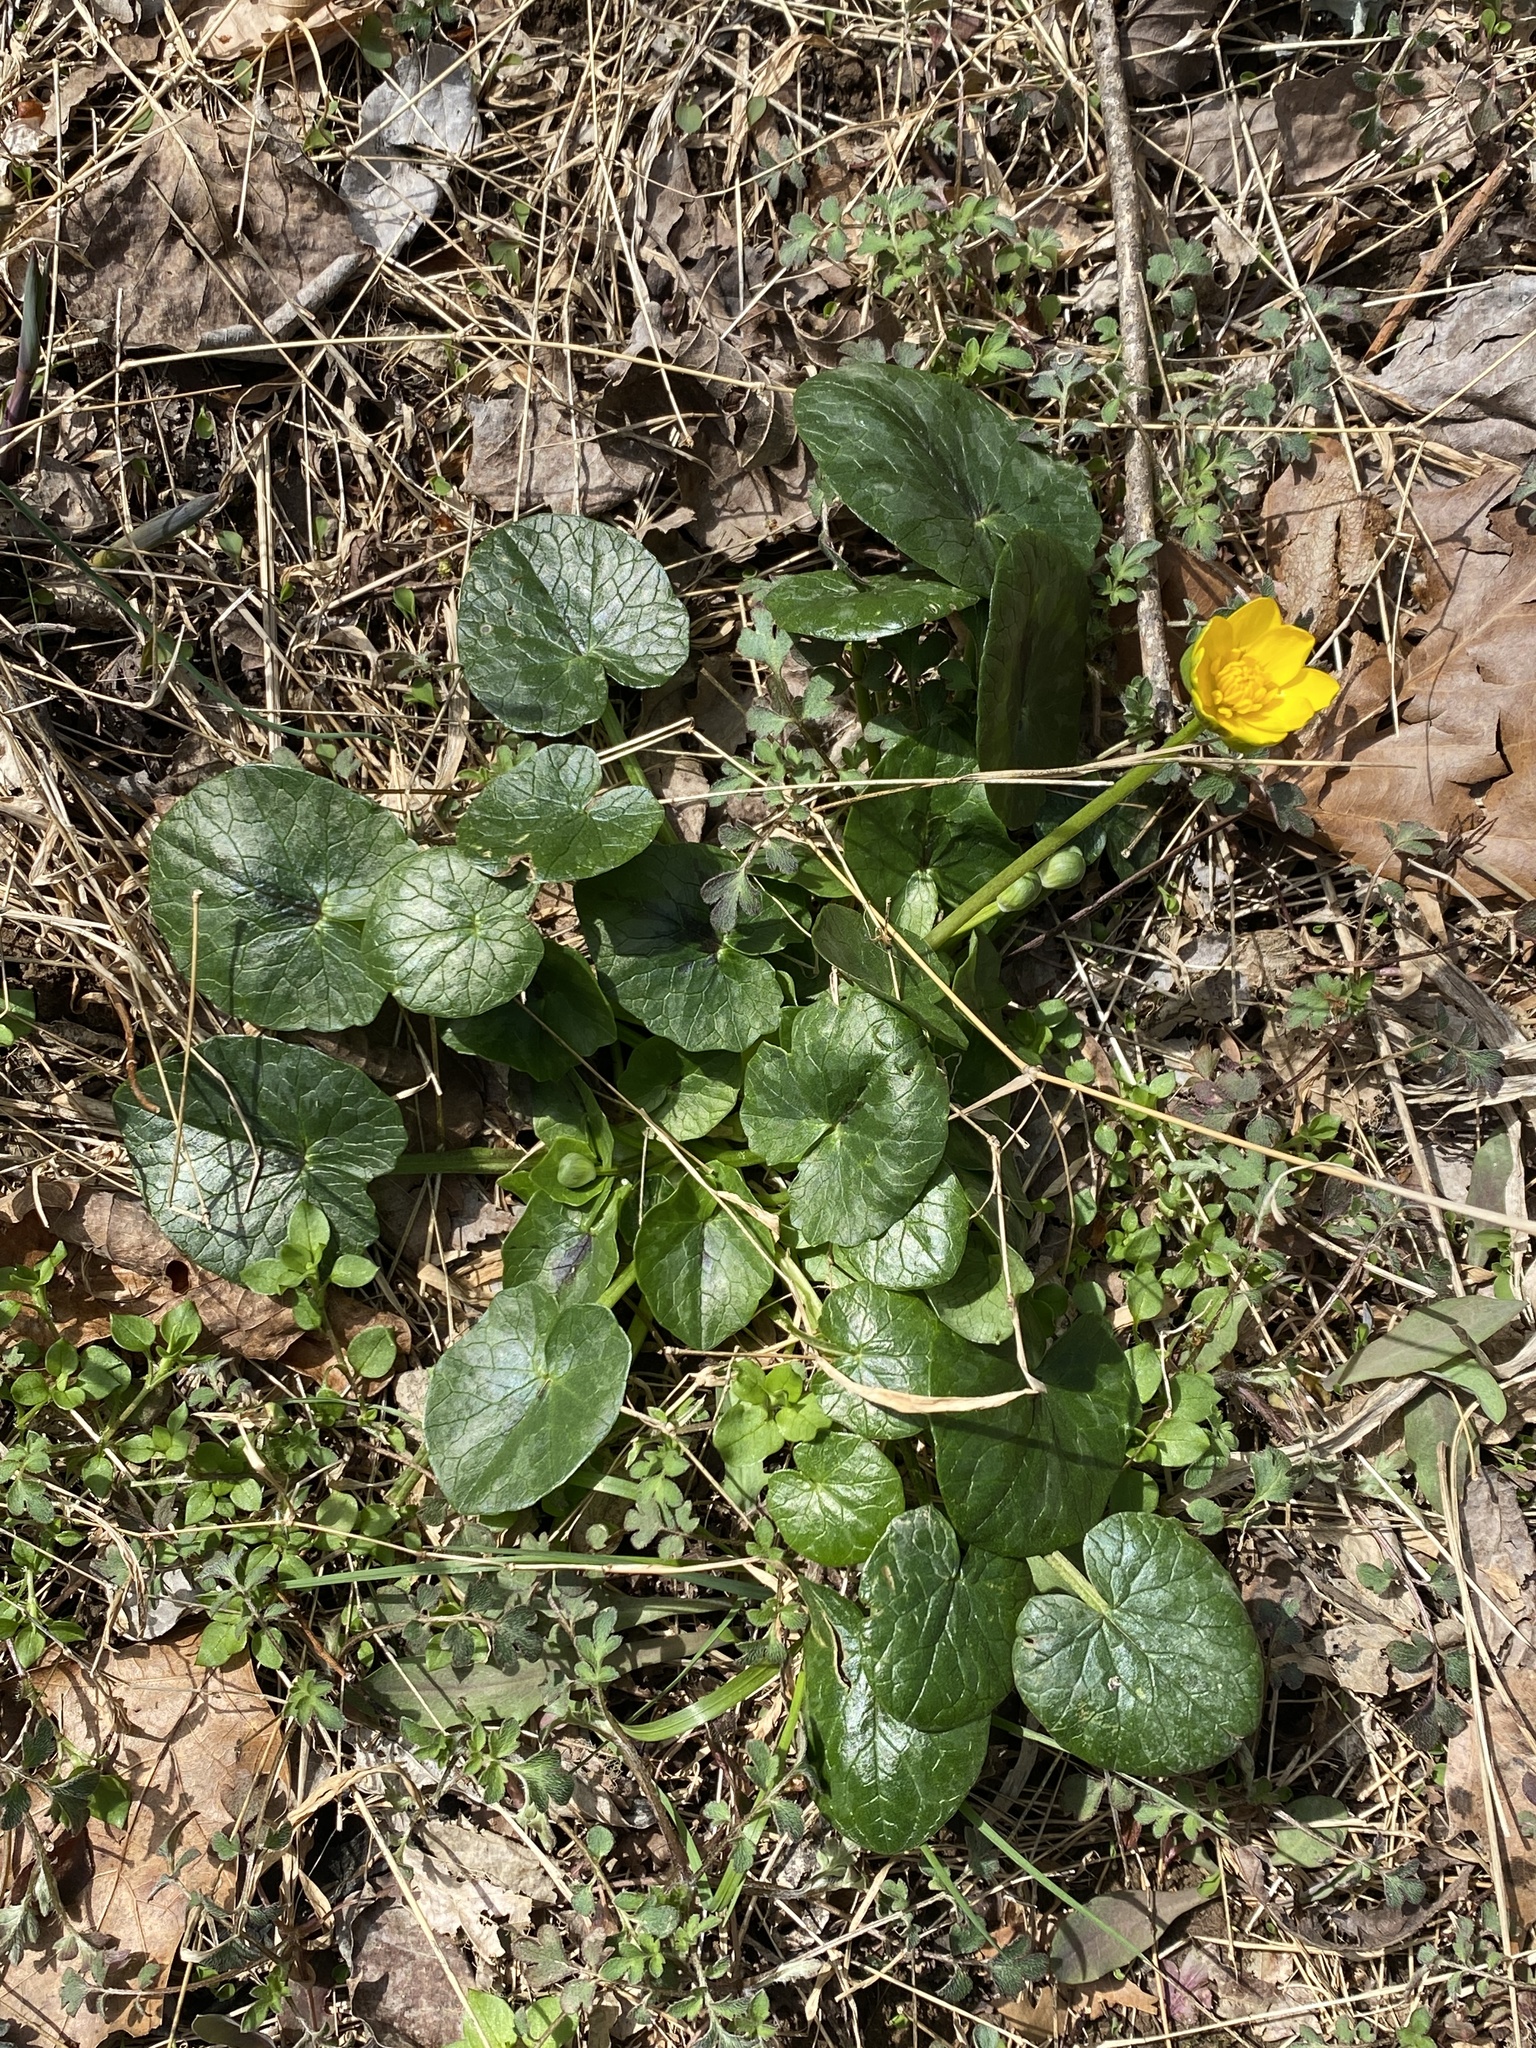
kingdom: Plantae
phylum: Tracheophyta
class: Magnoliopsida
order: Ranunculales
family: Ranunculaceae
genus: Ficaria
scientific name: Ficaria verna
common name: Lesser celandine
